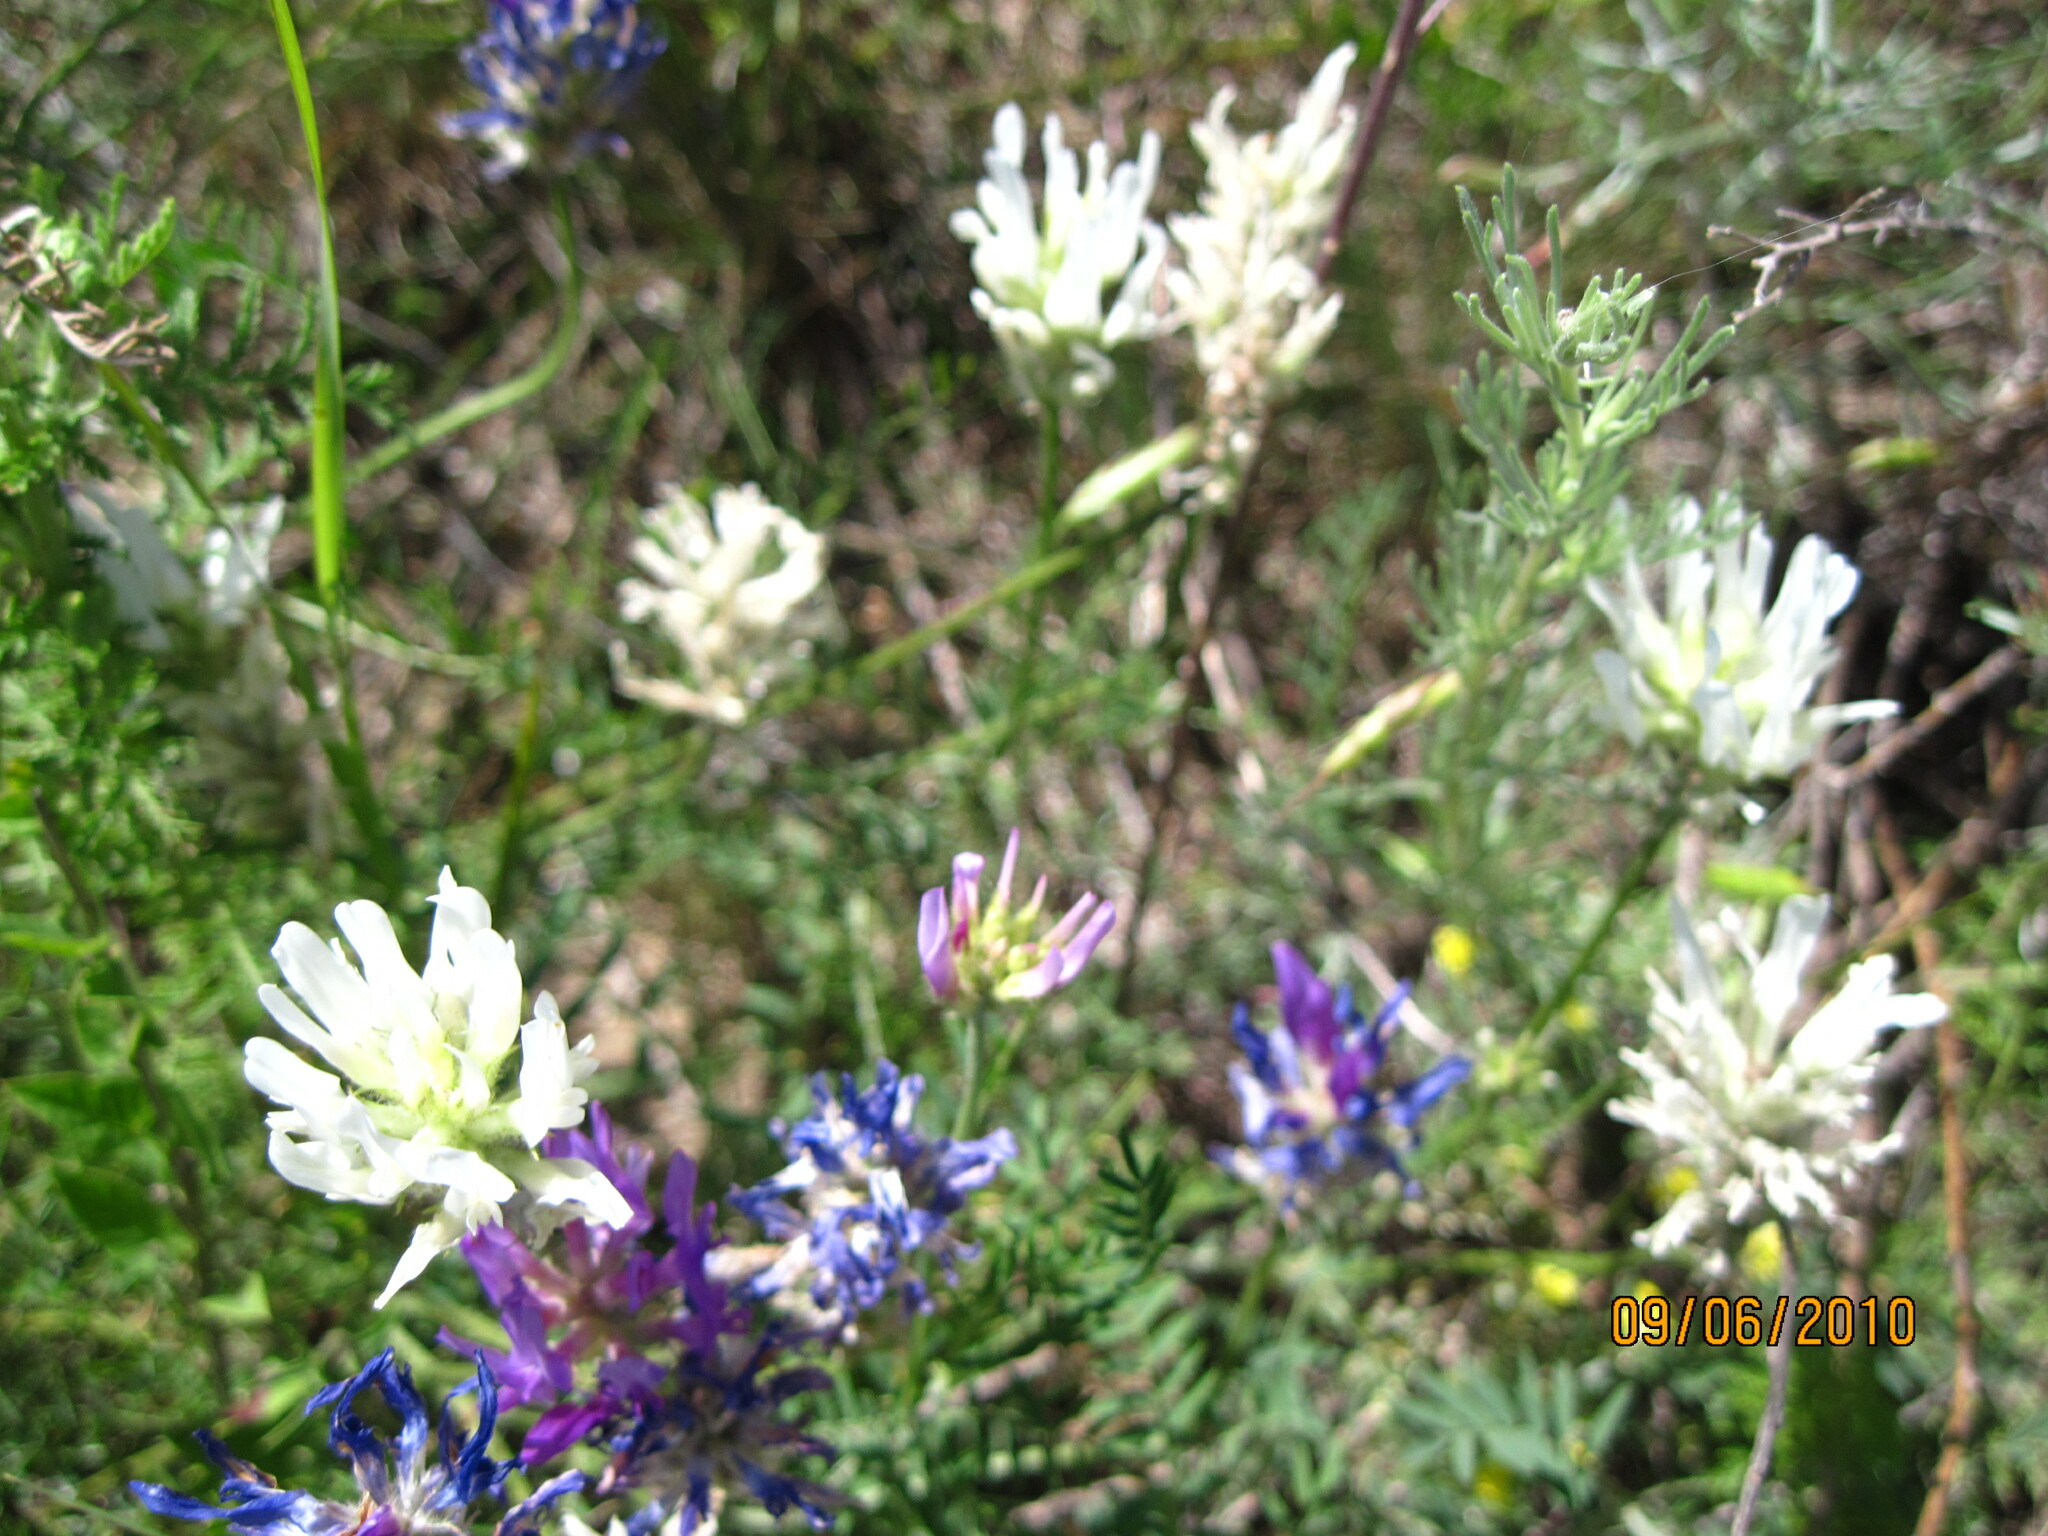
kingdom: Plantae
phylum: Tracheophyta
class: Magnoliopsida
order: Fabales
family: Fabaceae
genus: Astragalus
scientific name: Astragalus onobrychis
